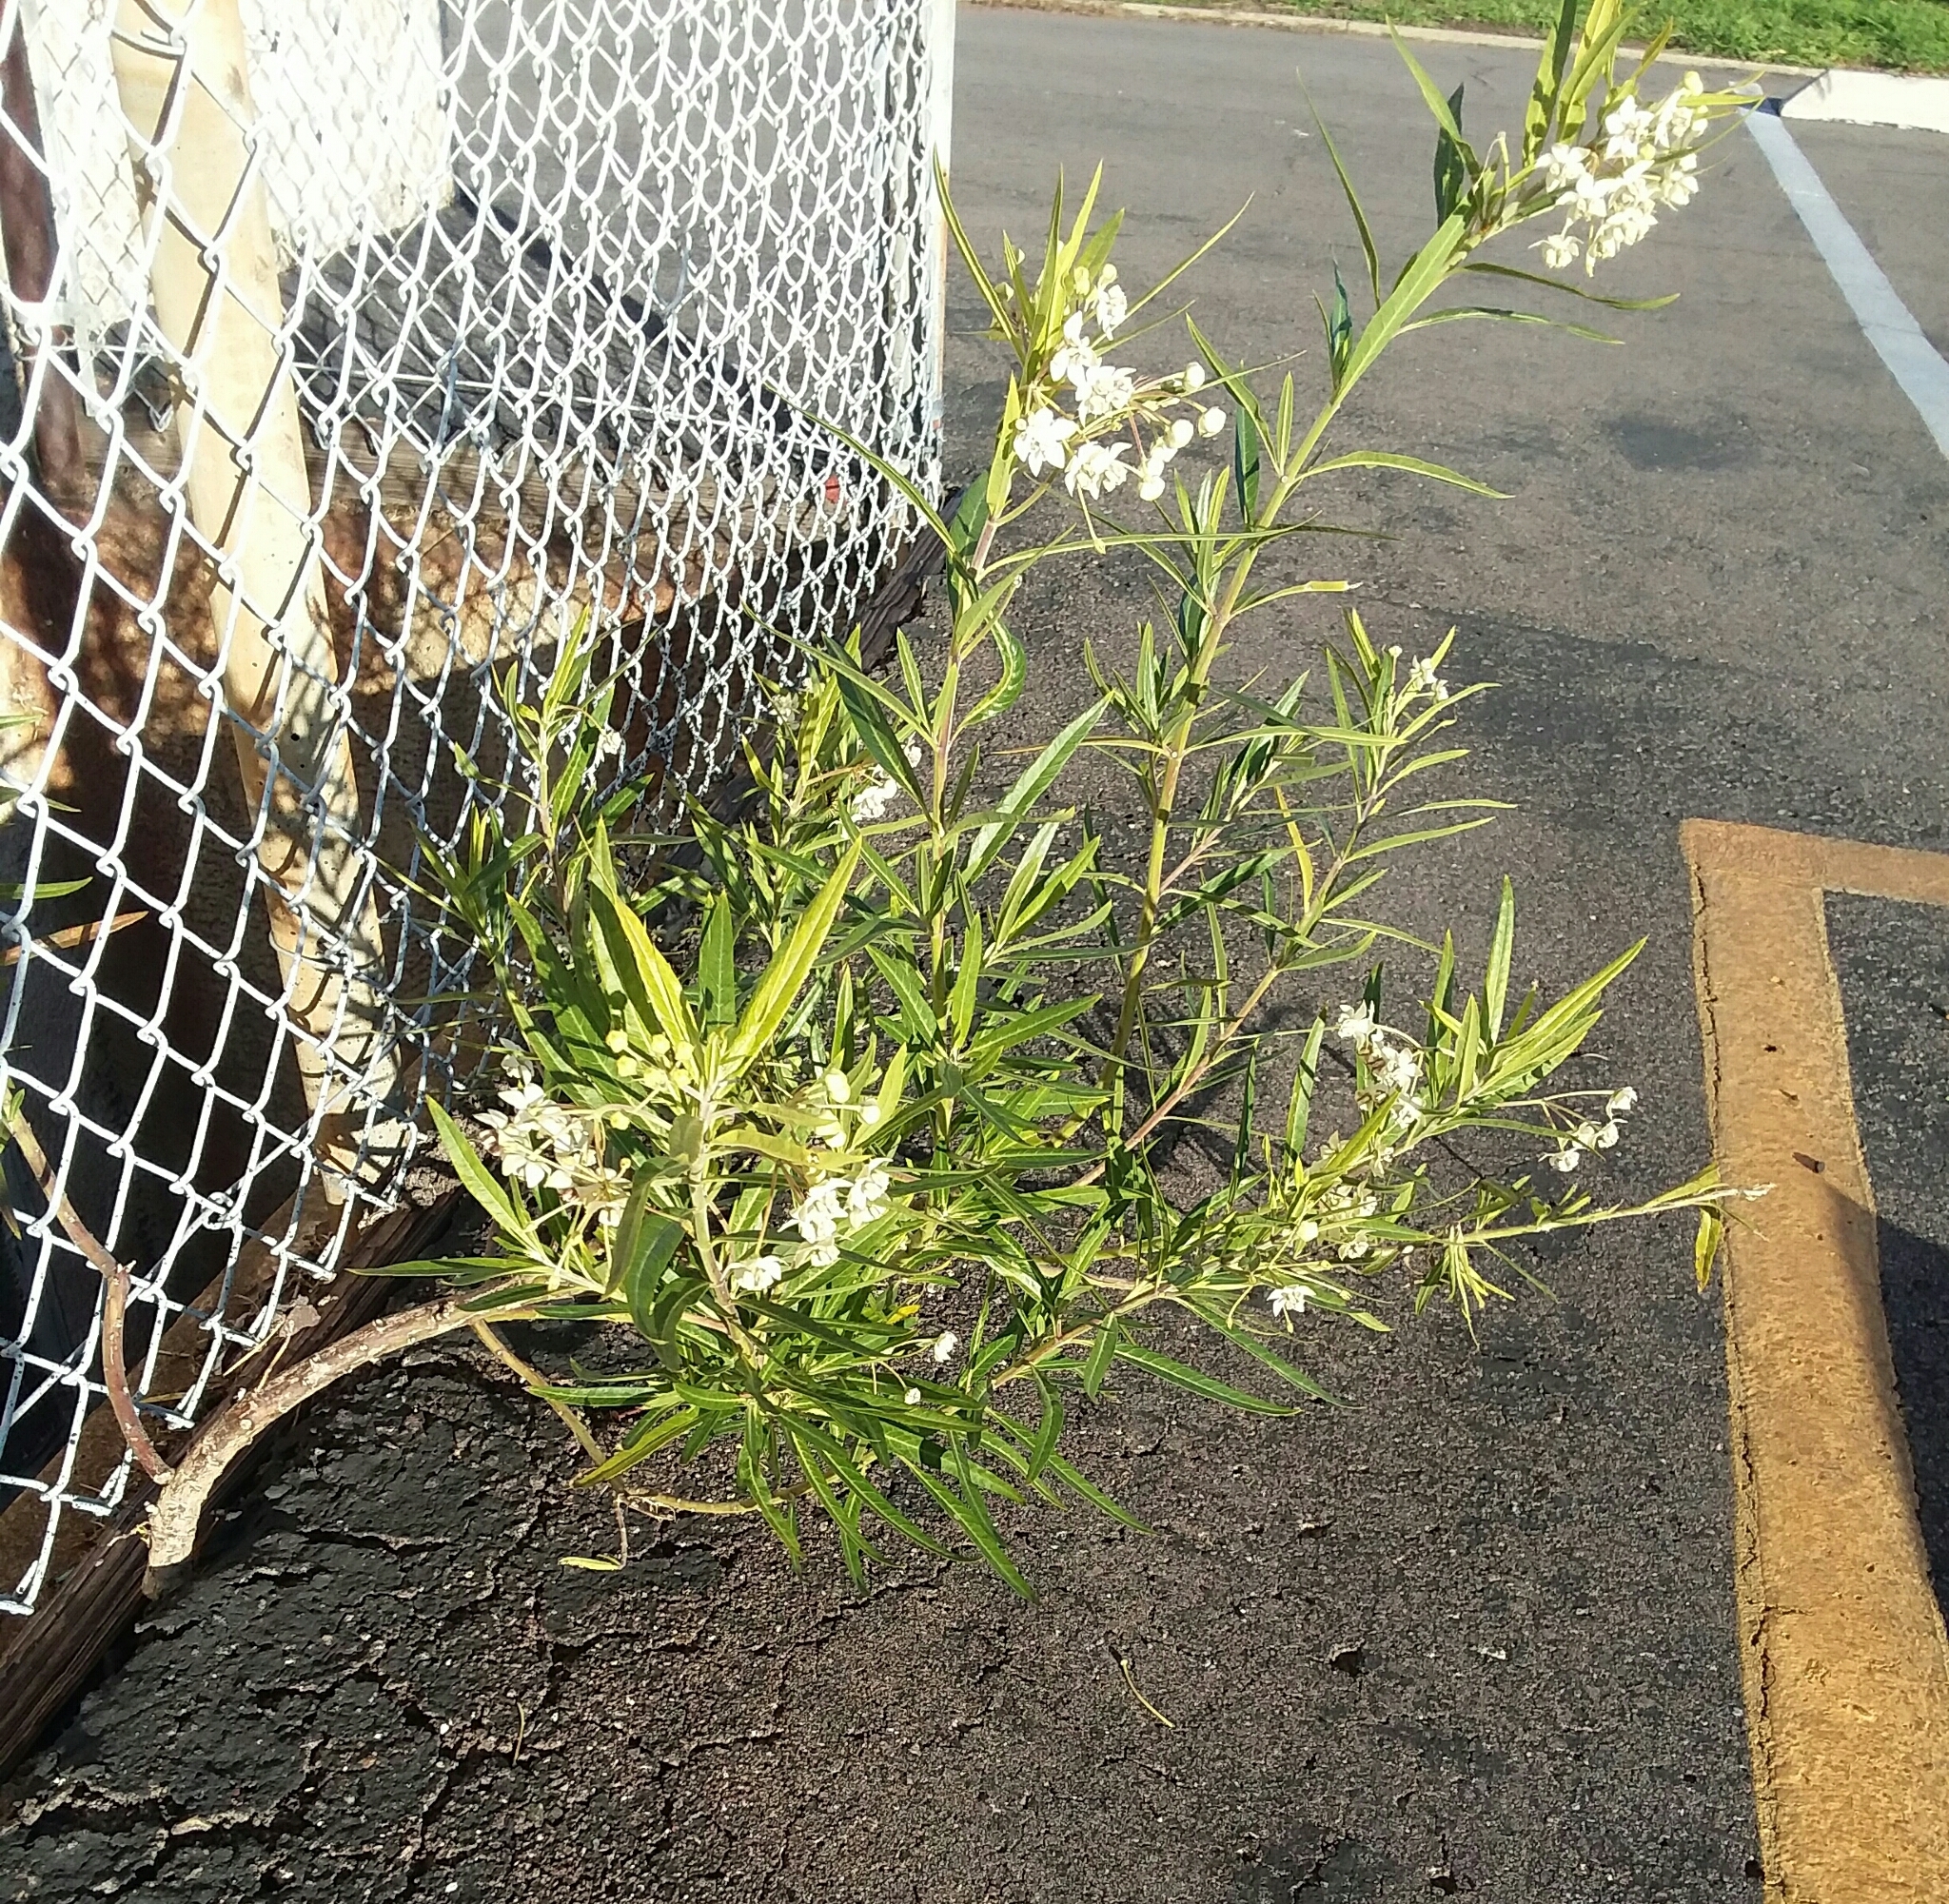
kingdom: Plantae
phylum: Tracheophyta
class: Magnoliopsida
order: Gentianales
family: Apocynaceae
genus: Gomphocarpus
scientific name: Gomphocarpus physocarpus
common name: Balloon cotton bush
